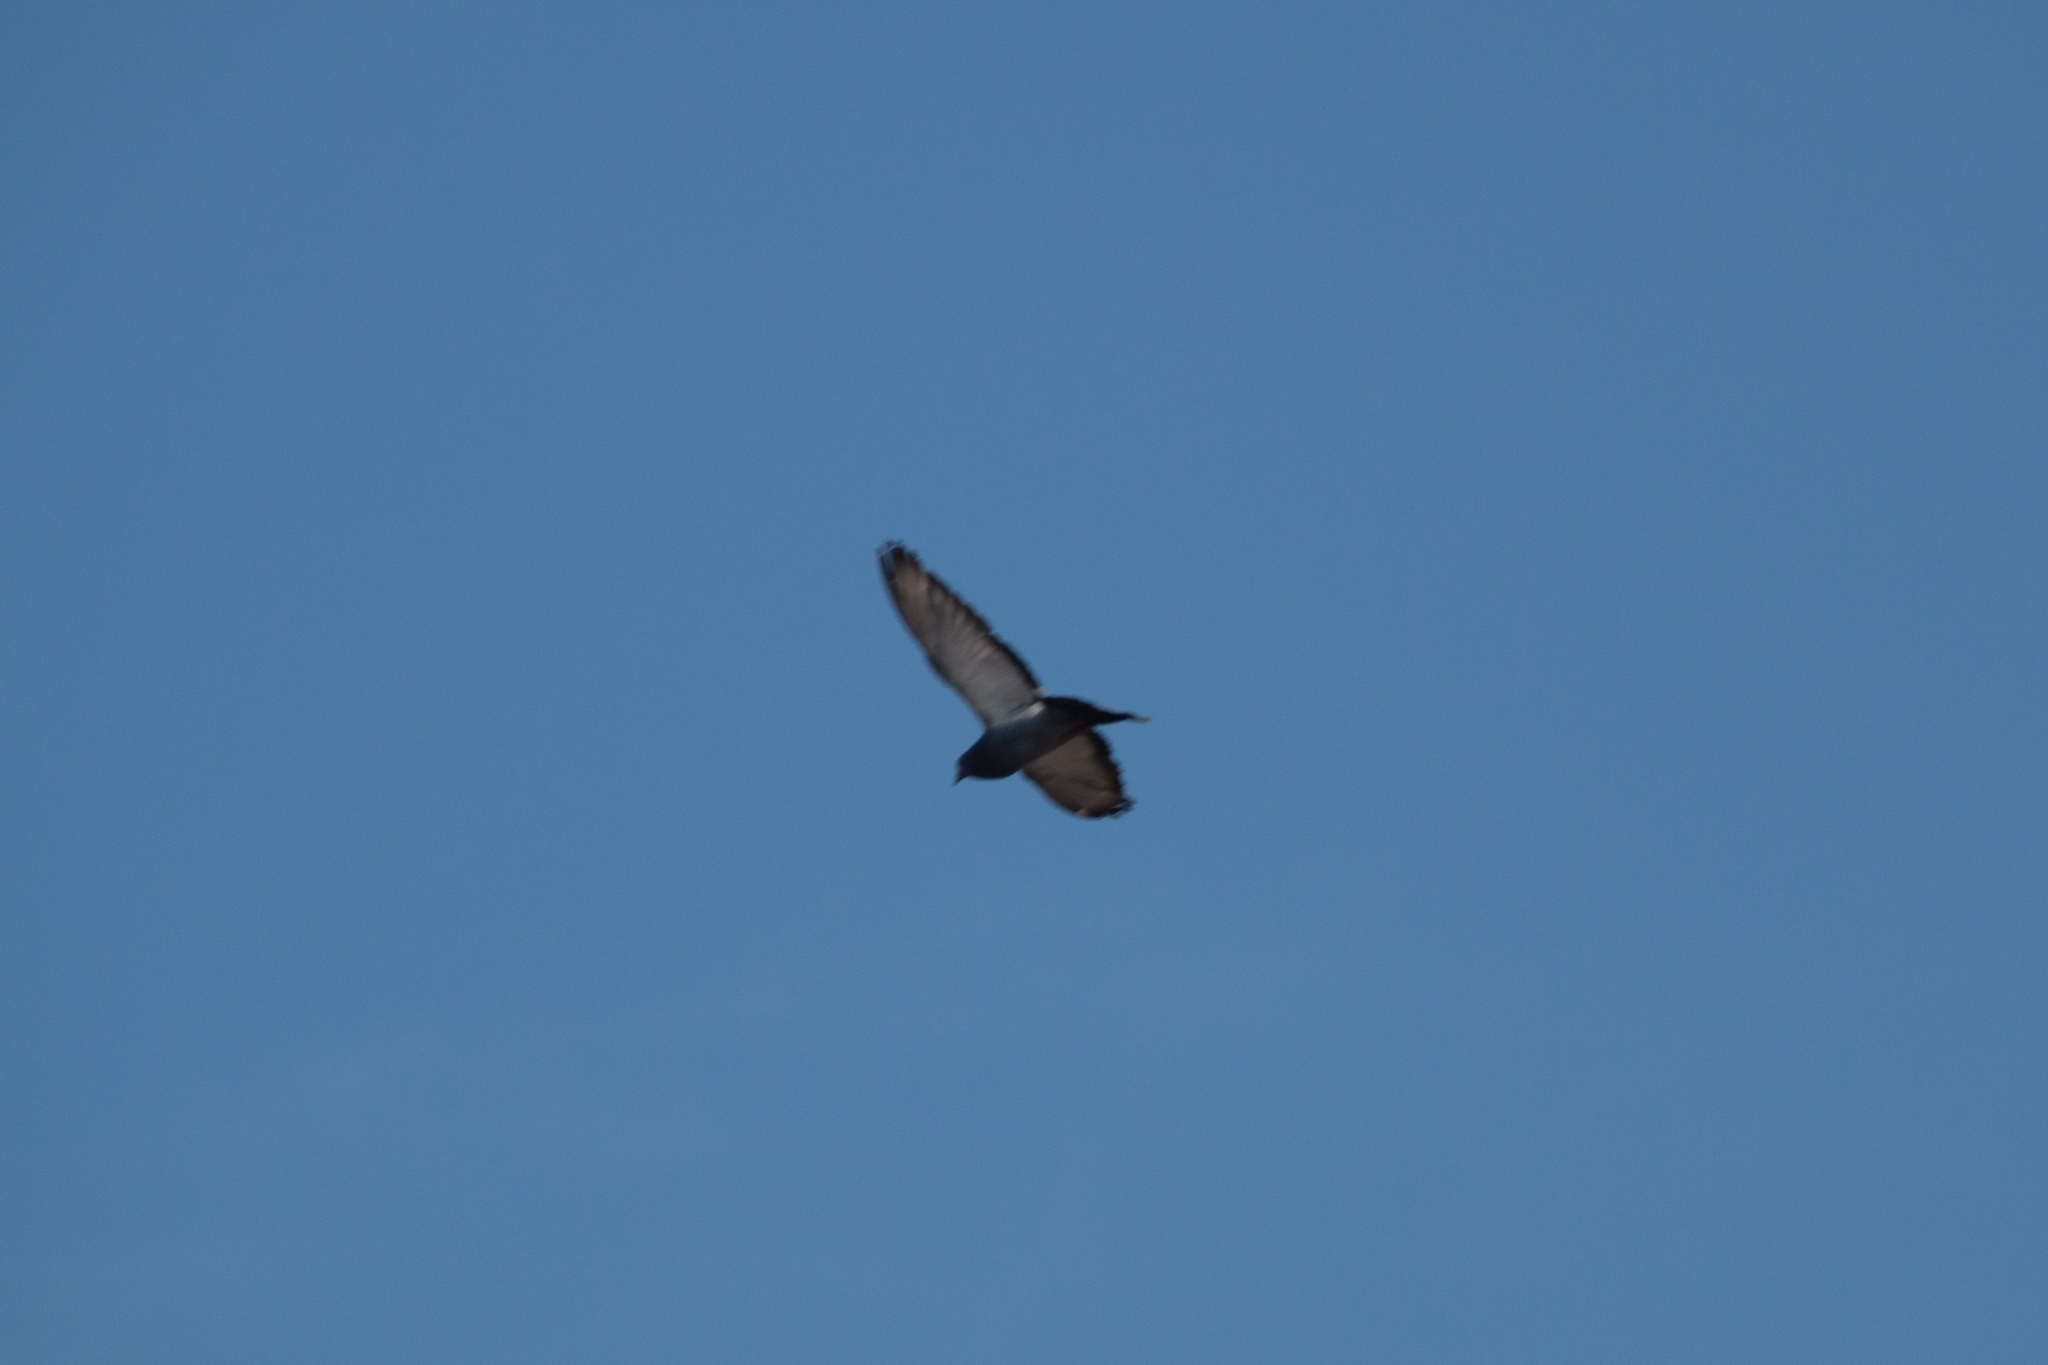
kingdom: Animalia
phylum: Chordata
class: Aves
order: Columbiformes
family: Columbidae
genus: Columba
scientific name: Columba livia
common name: Rock pigeon
